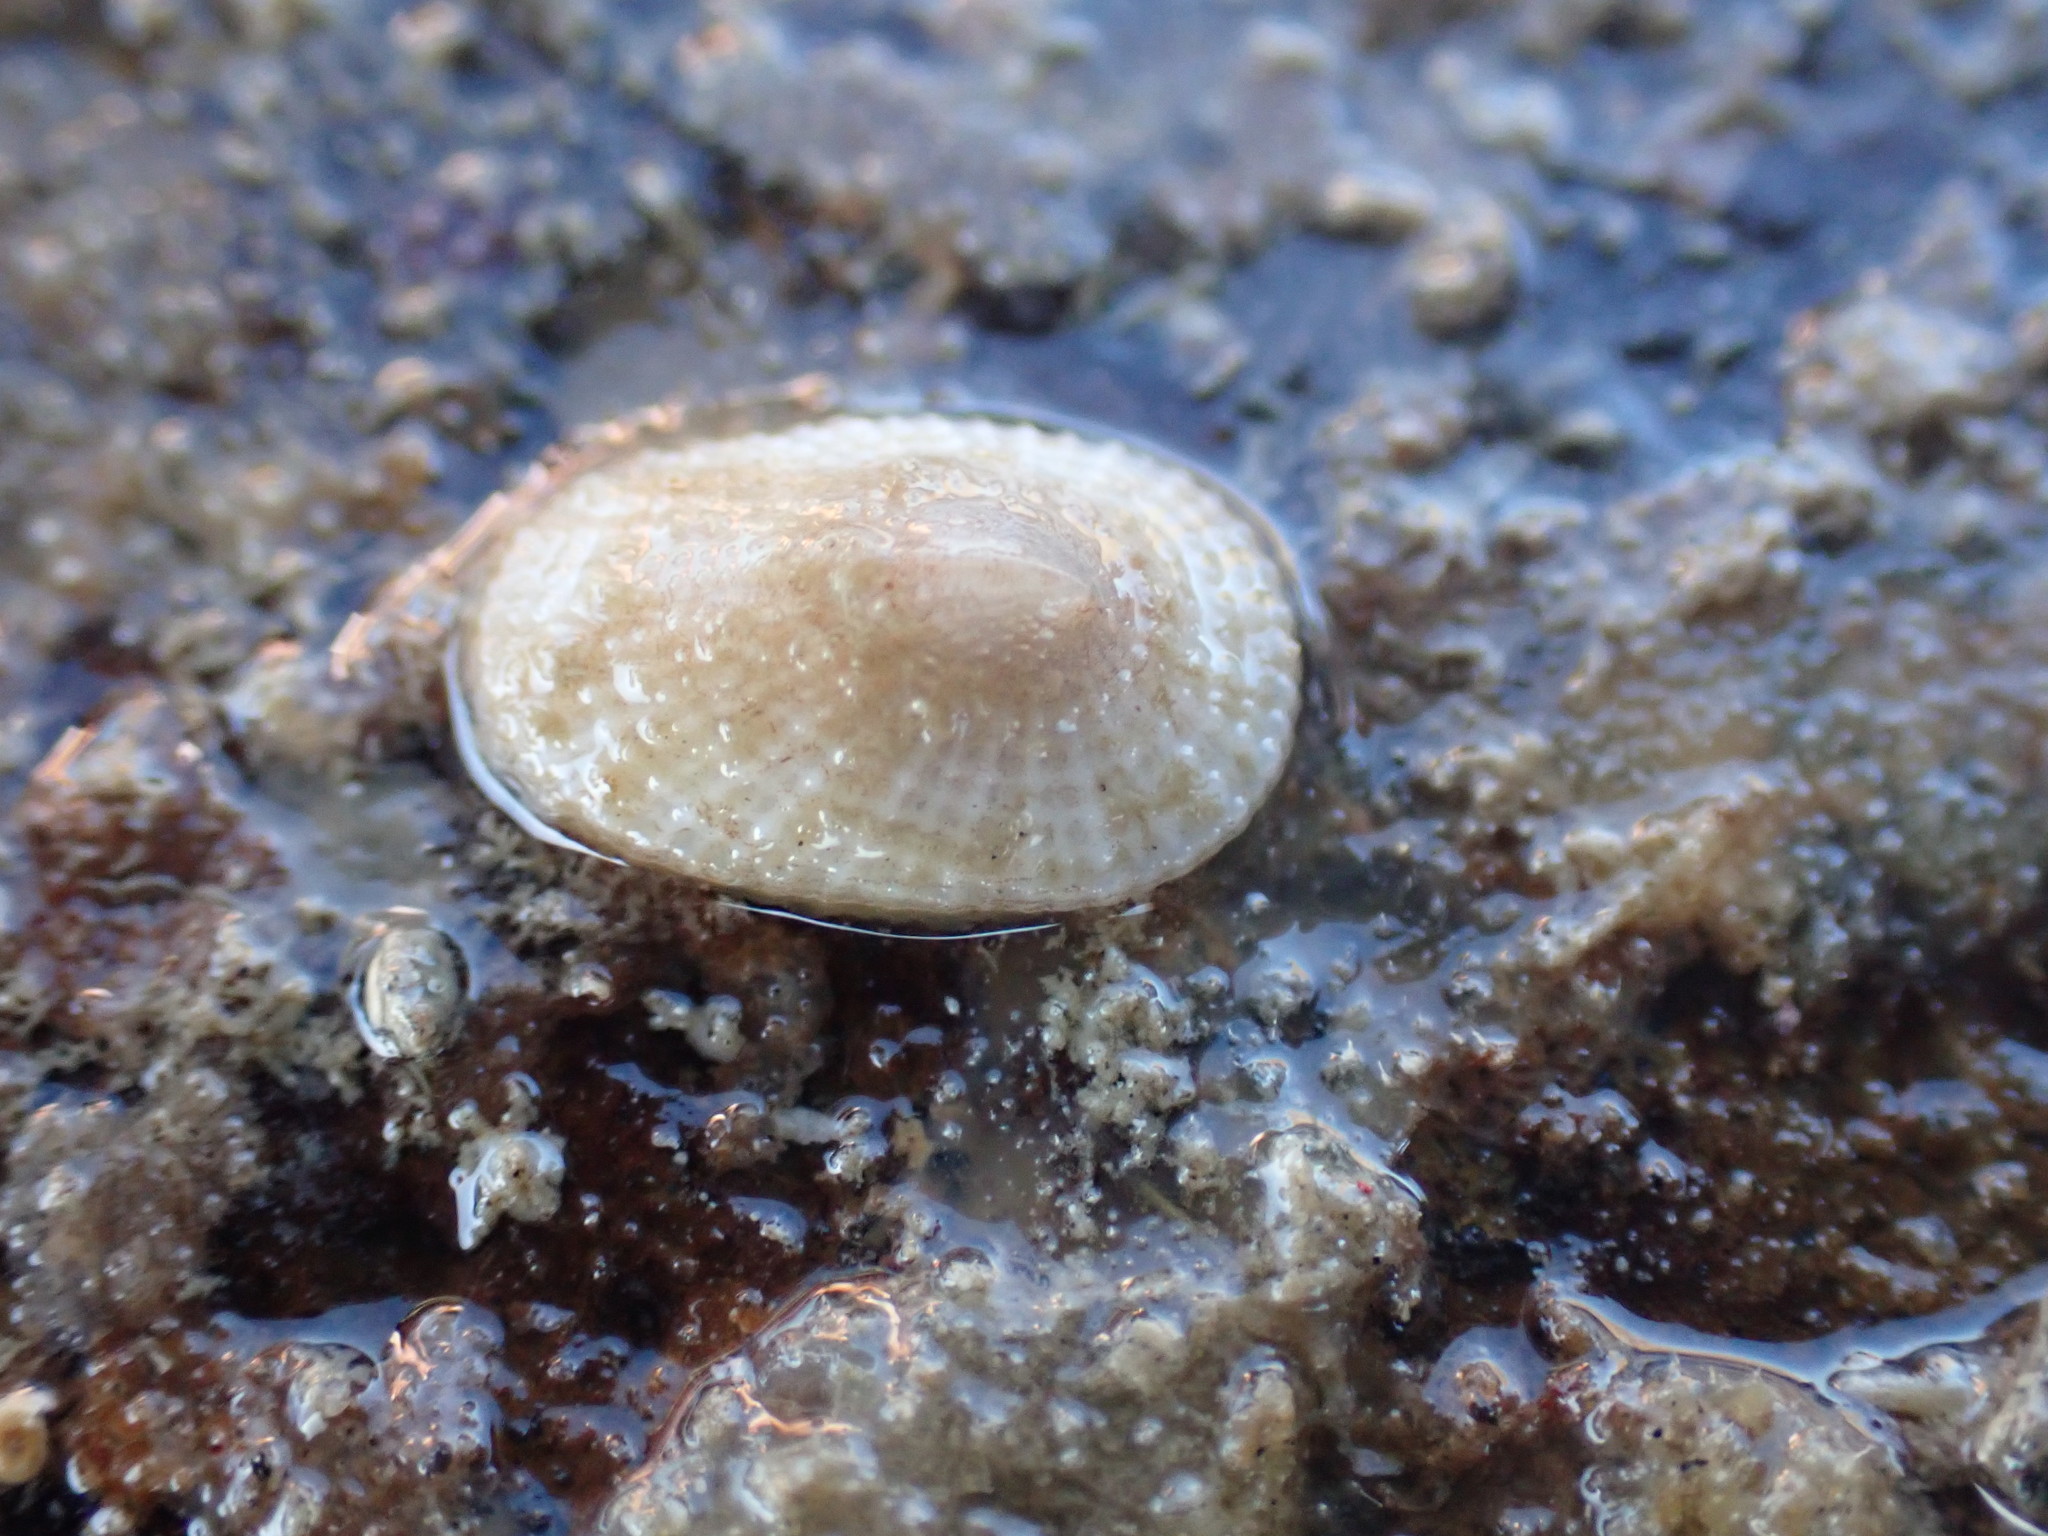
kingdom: Animalia
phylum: Mollusca
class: Gastropoda
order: Lepetellida
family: Fissurellidae
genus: Tugali
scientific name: Tugali suteri
